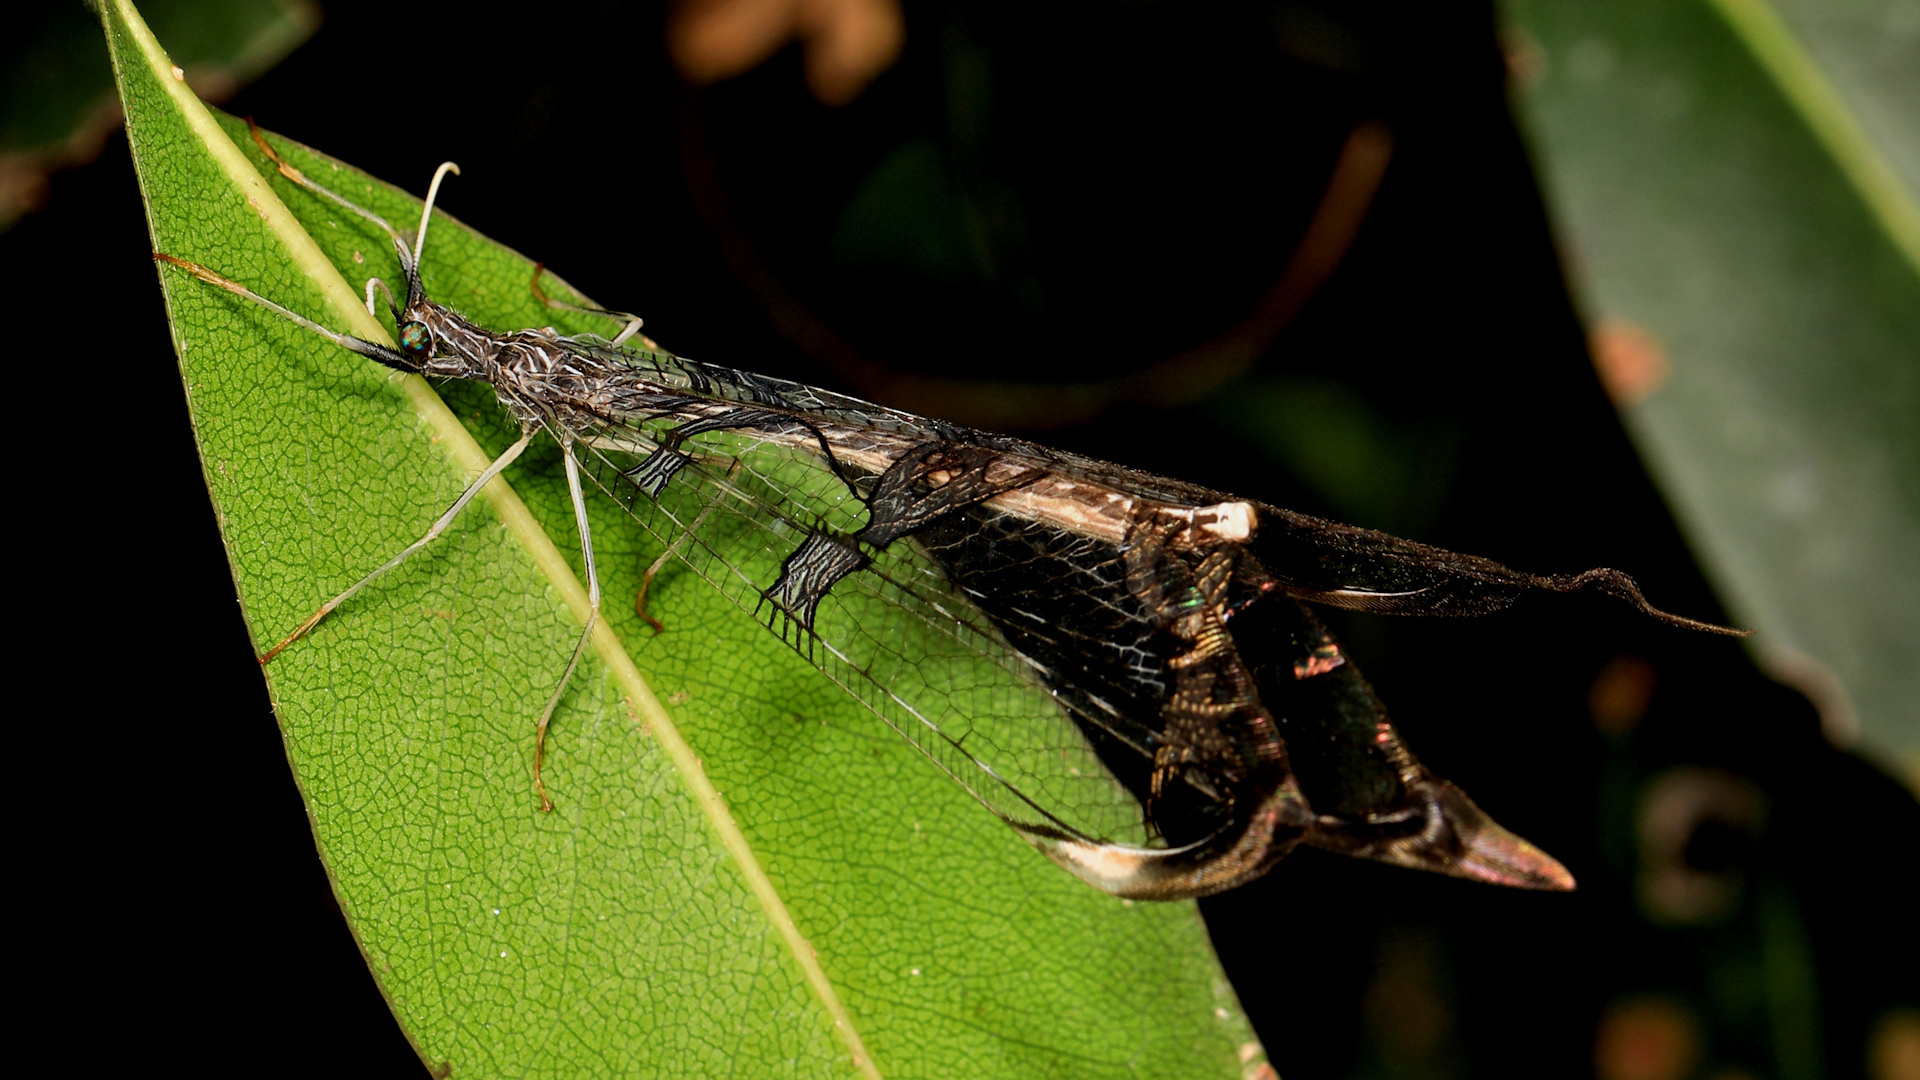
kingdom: Animalia
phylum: Arthropoda
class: Insecta
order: Neuroptera
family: Myrmeleontidae
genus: Cymothales
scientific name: Cymothales bouvieri
